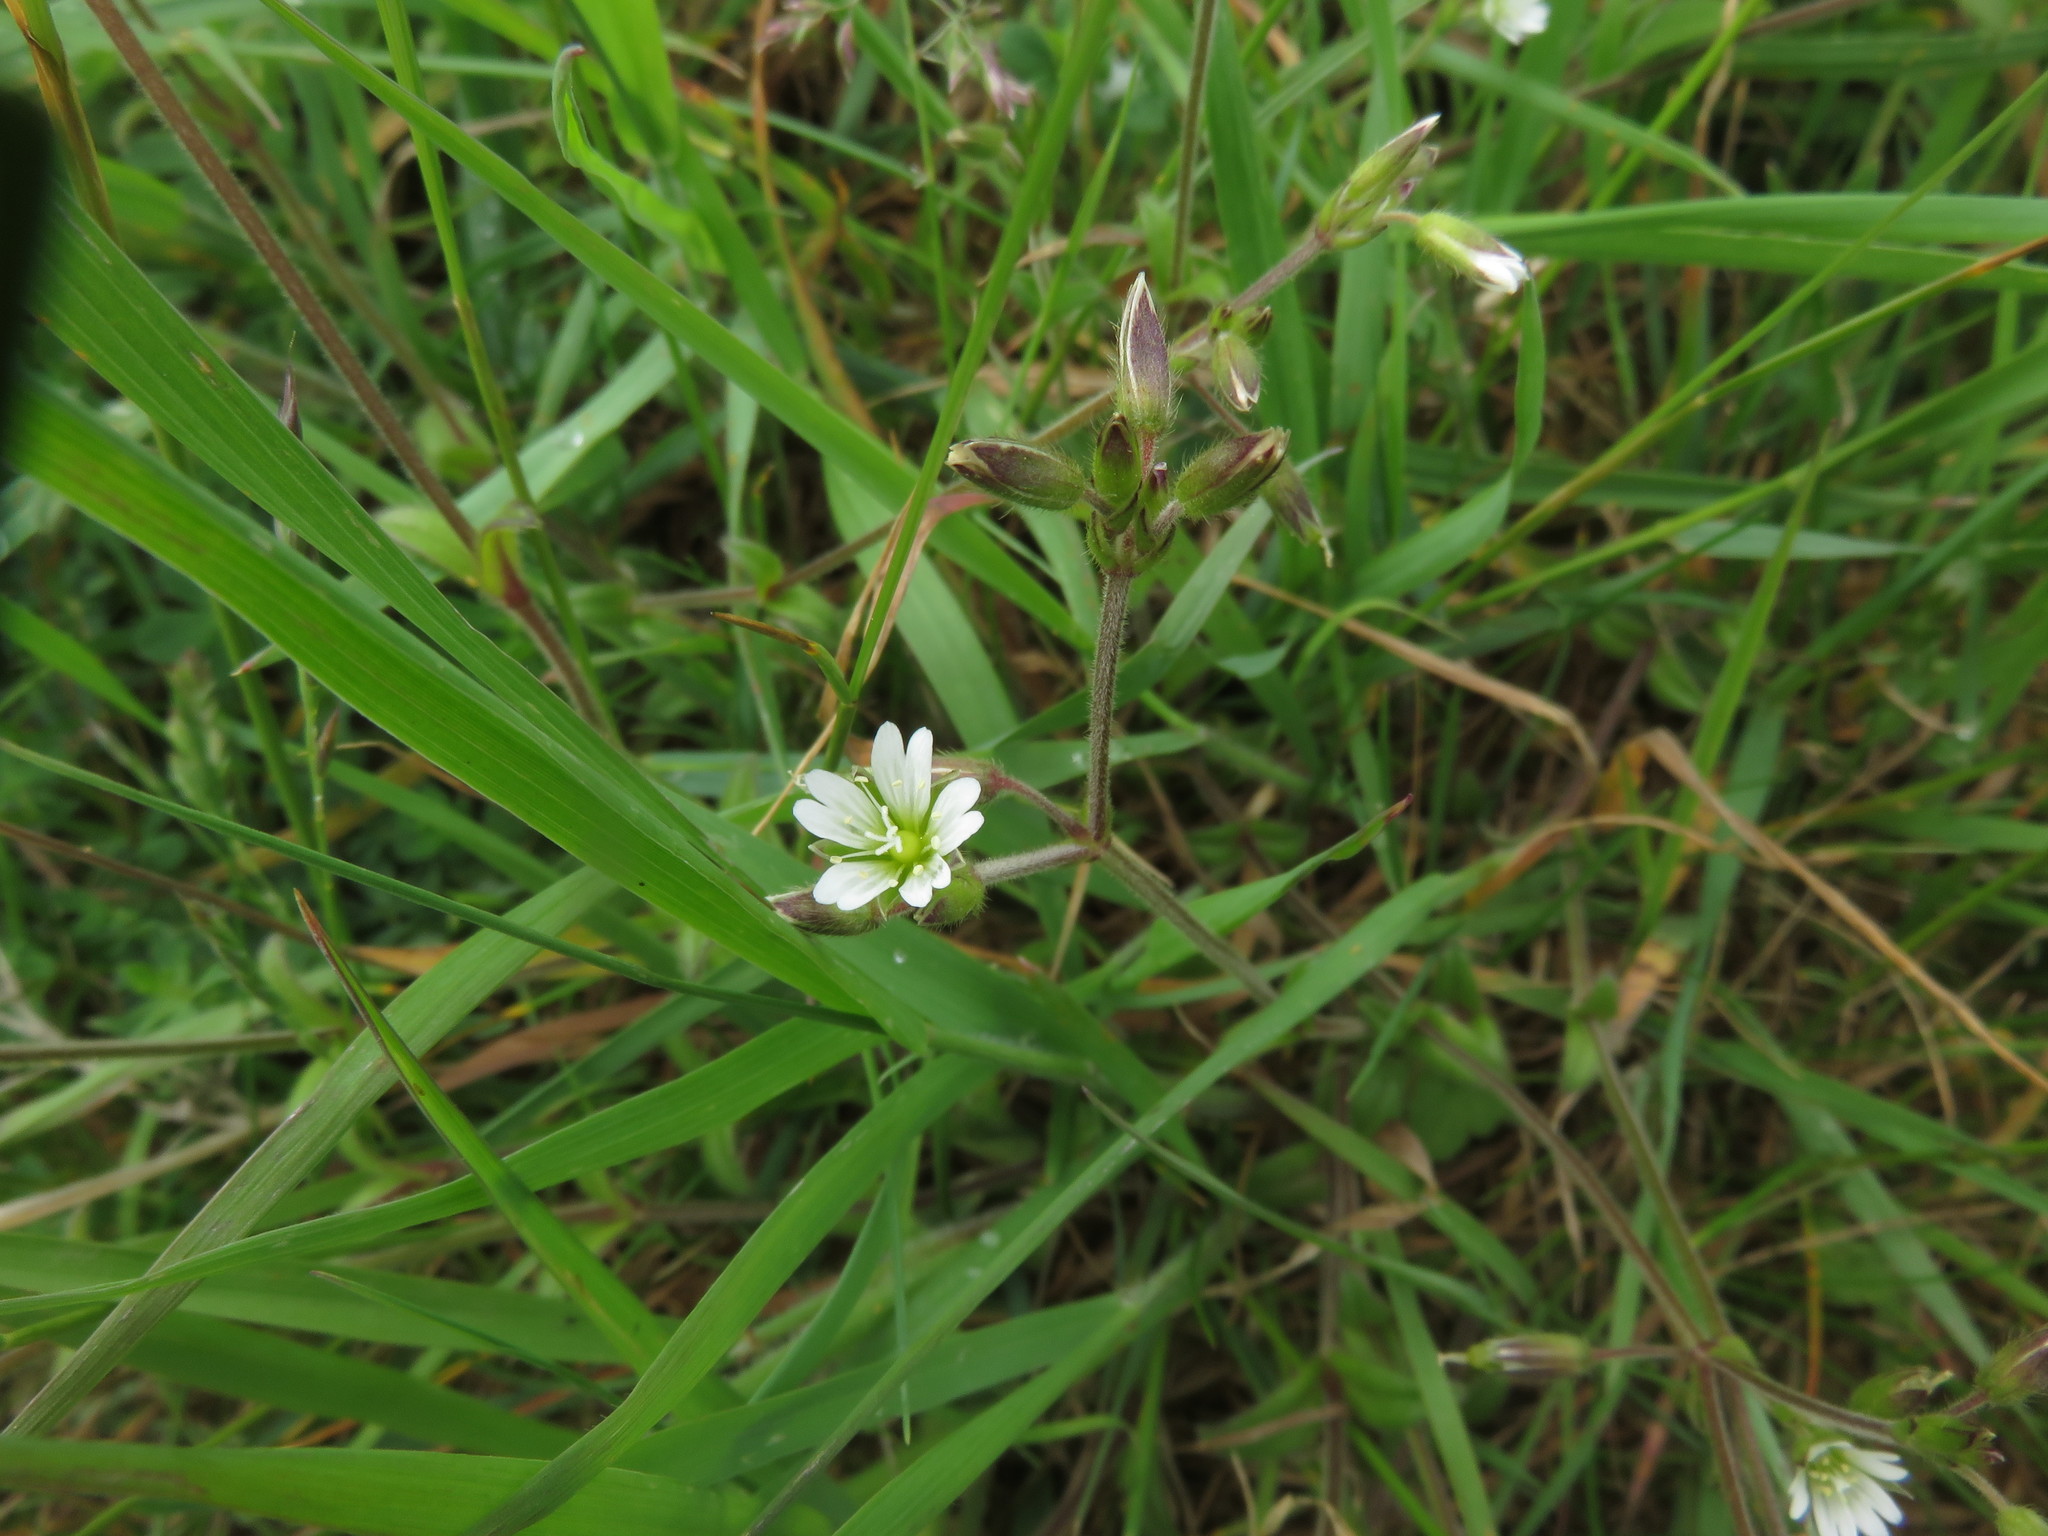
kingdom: Plantae
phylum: Tracheophyta
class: Magnoliopsida
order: Caryophyllales
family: Caryophyllaceae
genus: Cerastium
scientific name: Cerastium fontanum
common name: Common mouse-ear
